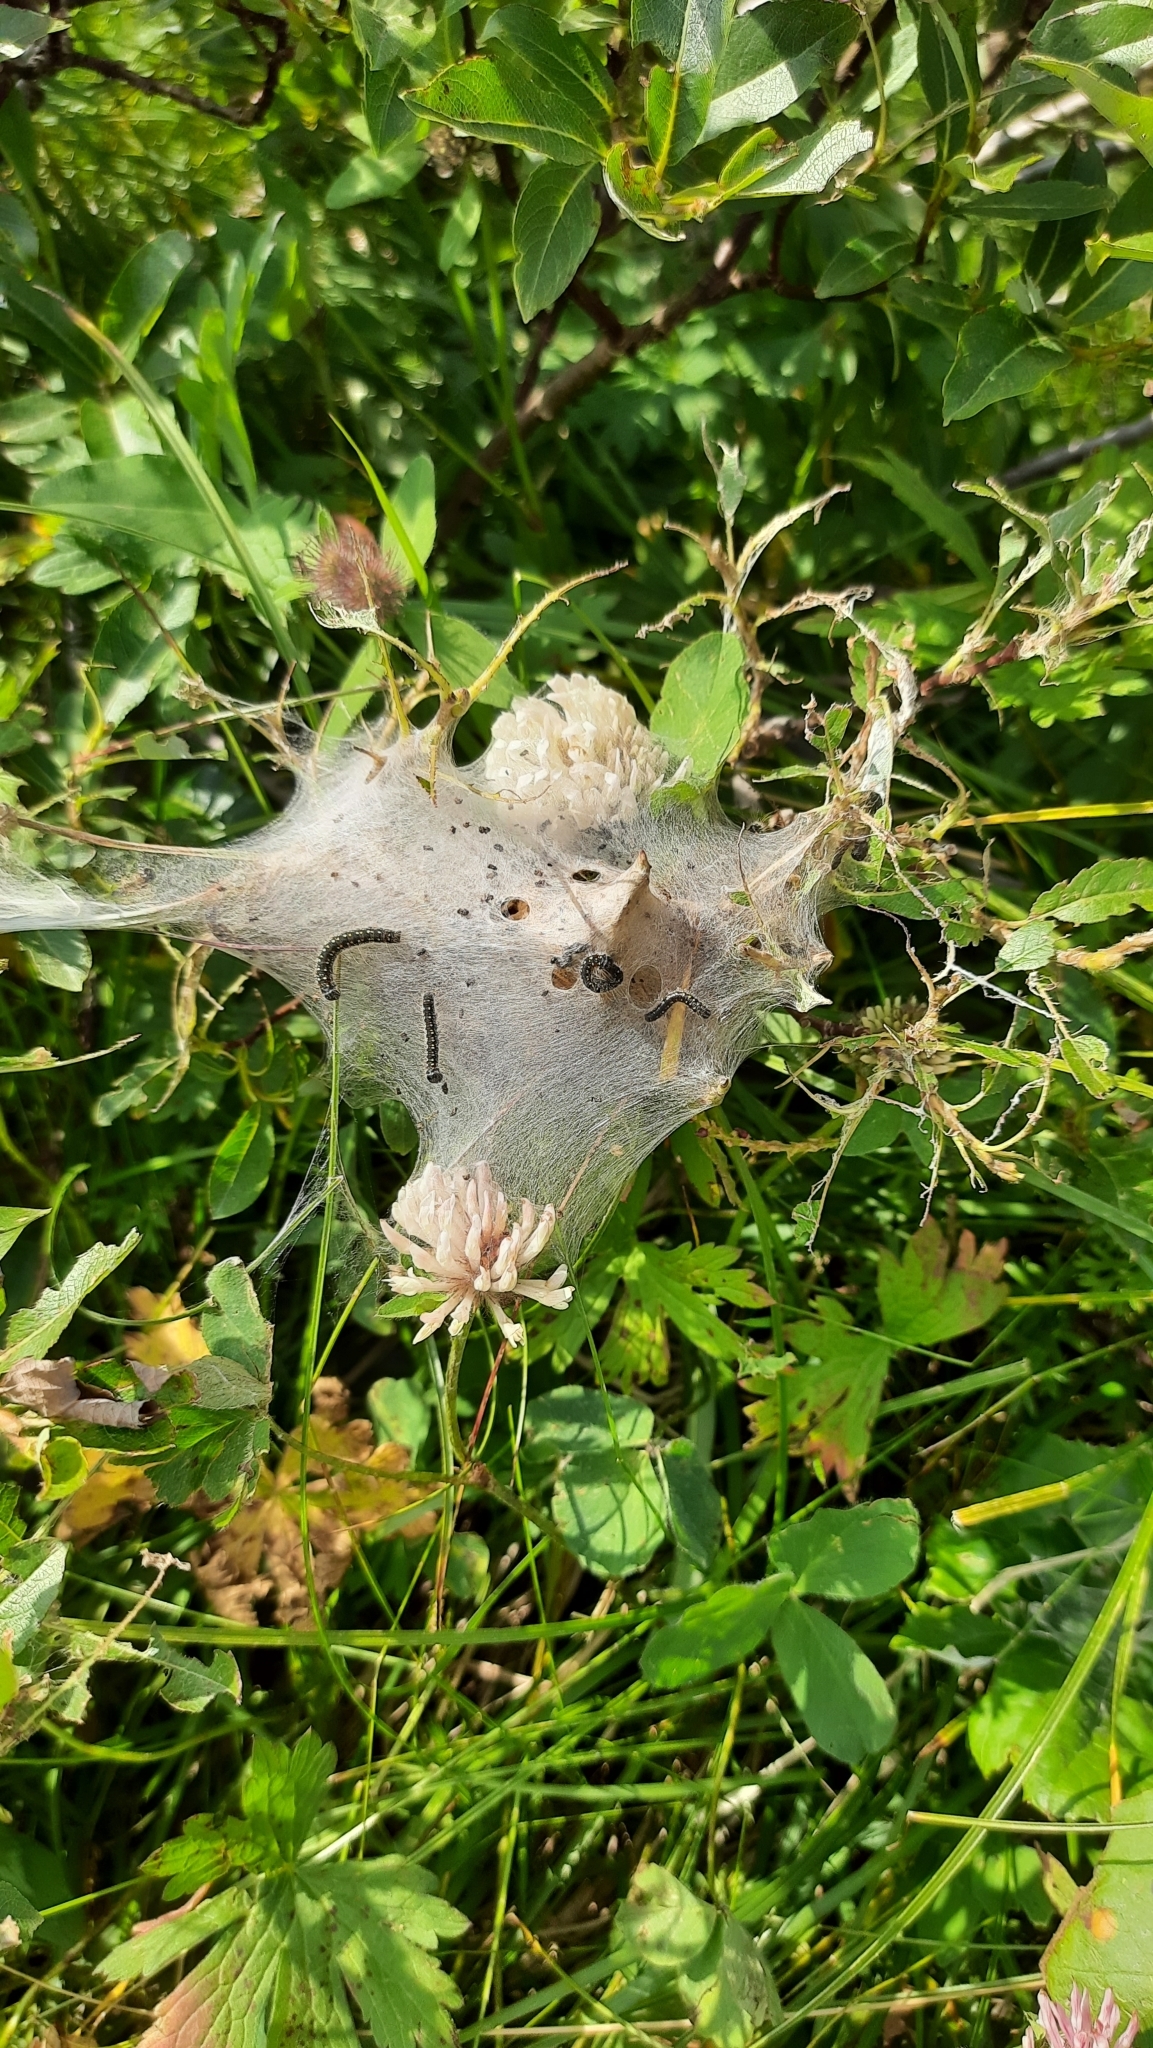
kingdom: Animalia
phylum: Arthropoda
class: Insecta
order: Lepidoptera
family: Lasiocampidae
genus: Eriogaster
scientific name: Eriogaster arbusculae
